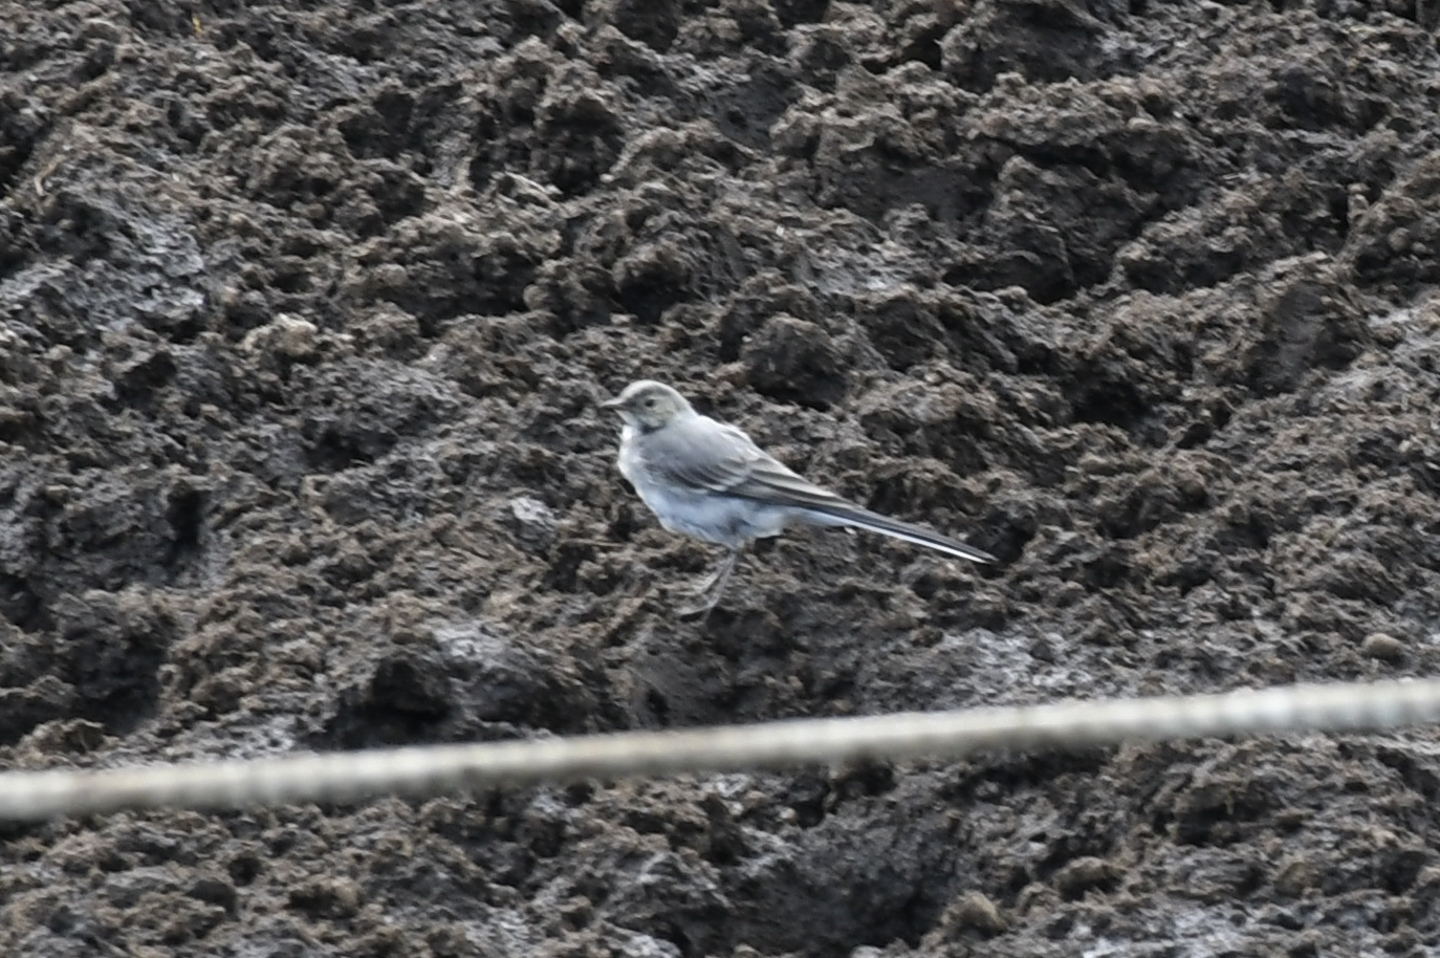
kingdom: Animalia
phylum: Chordata
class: Aves
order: Passeriformes
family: Motacillidae
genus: Motacilla
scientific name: Motacilla alba
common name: White wagtail
